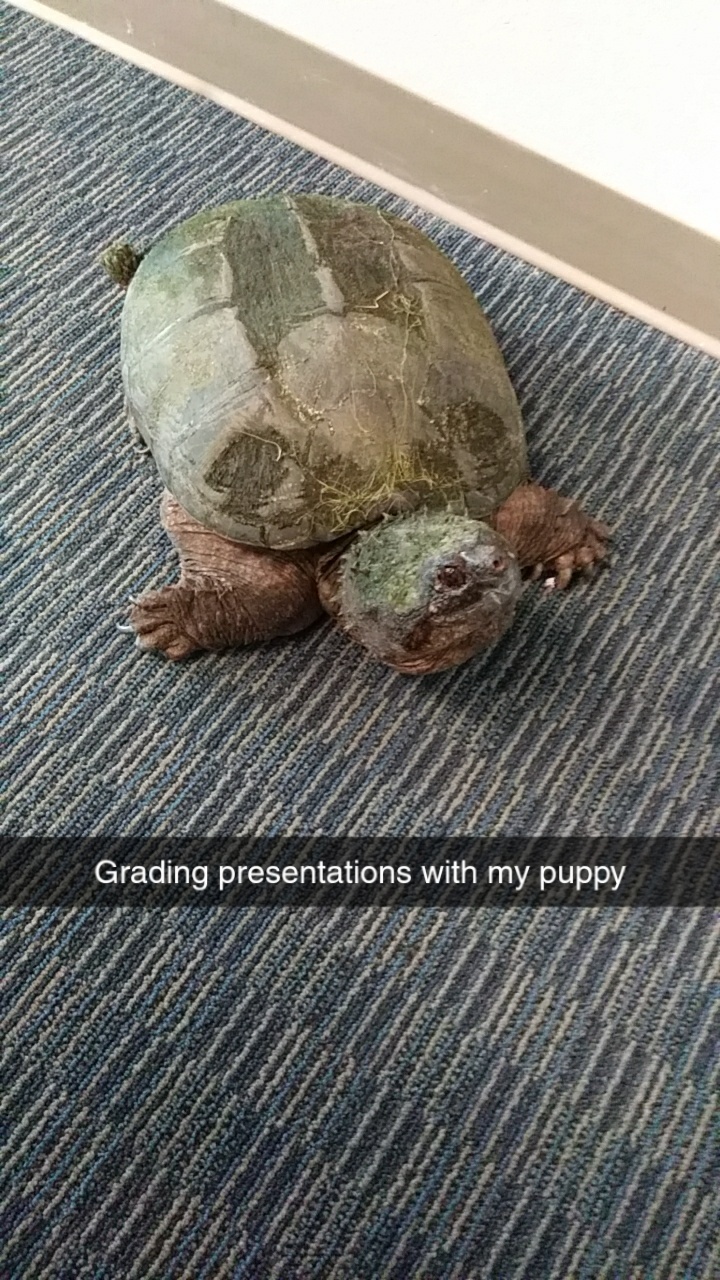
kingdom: Animalia
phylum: Chordata
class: Testudines
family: Chelydridae
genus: Chelydra
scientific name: Chelydra serpentina
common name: Common snapping turtle
